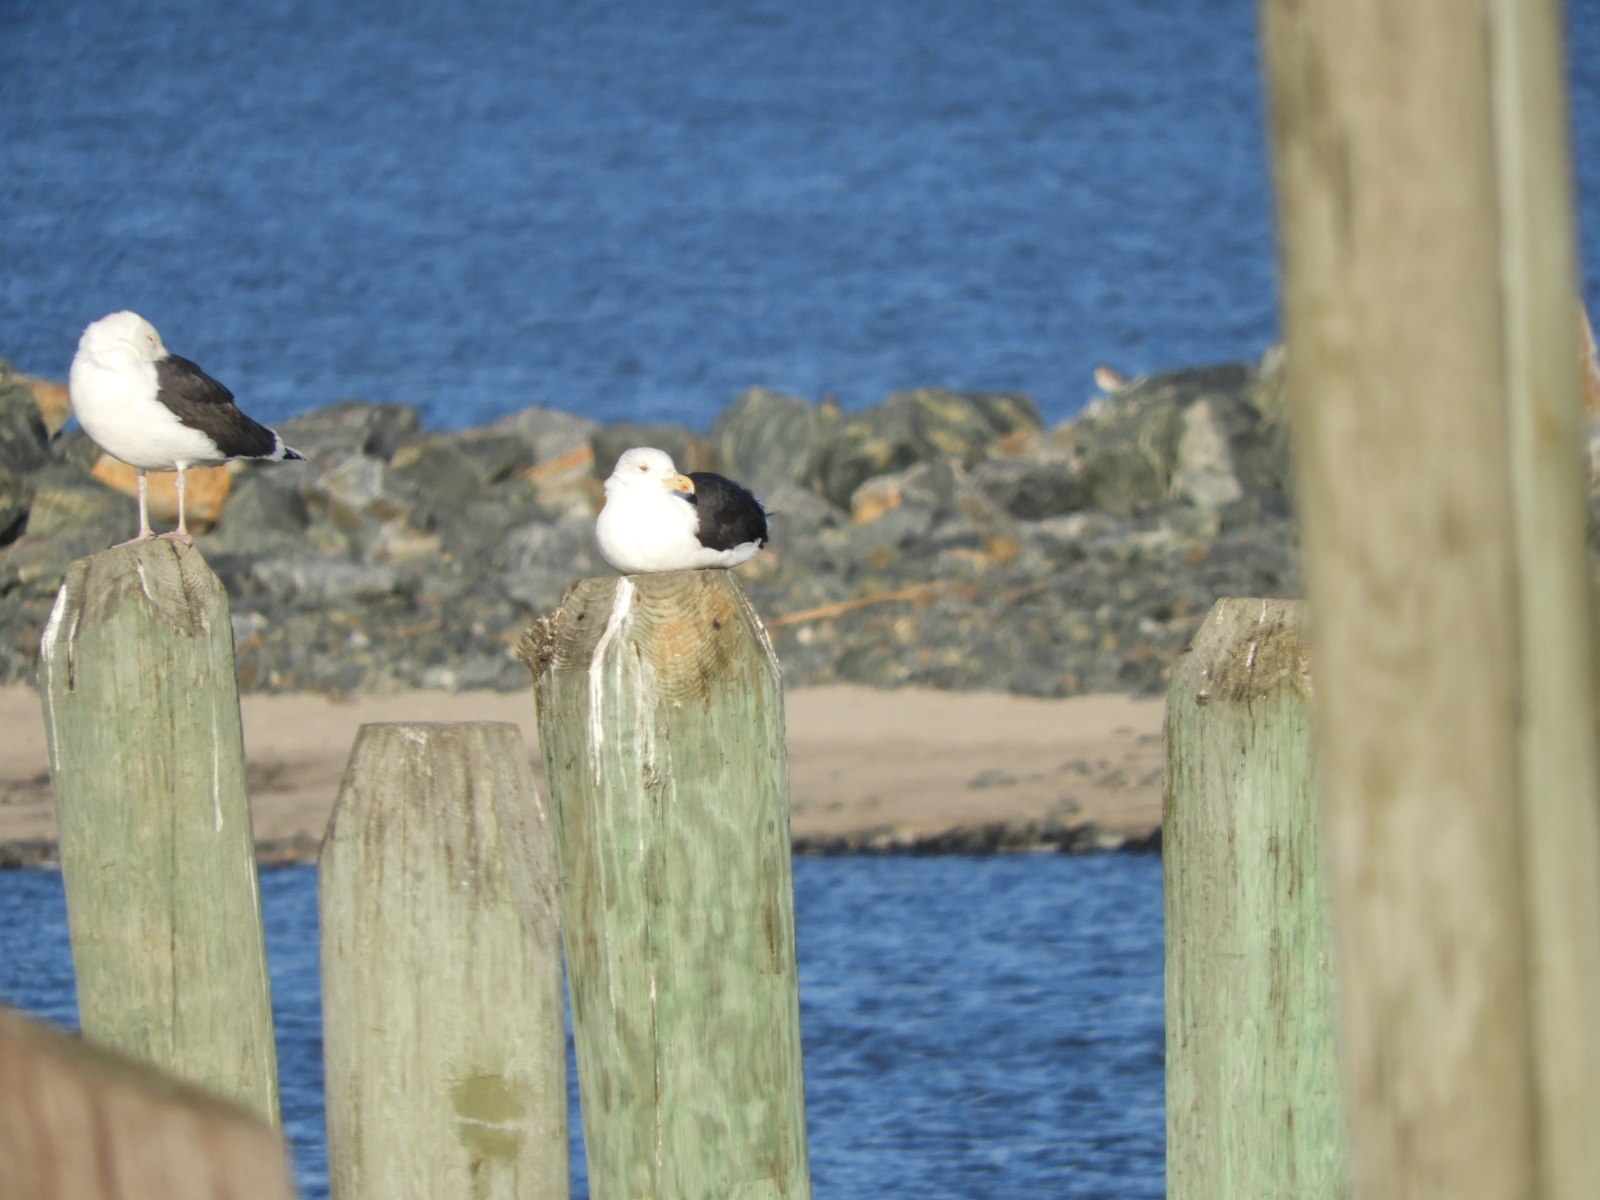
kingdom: Animalia
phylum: Chordata
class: Aves
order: Charadriiformes
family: Laridae
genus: Larus
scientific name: Larus marinus
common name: Great black-backed gull
